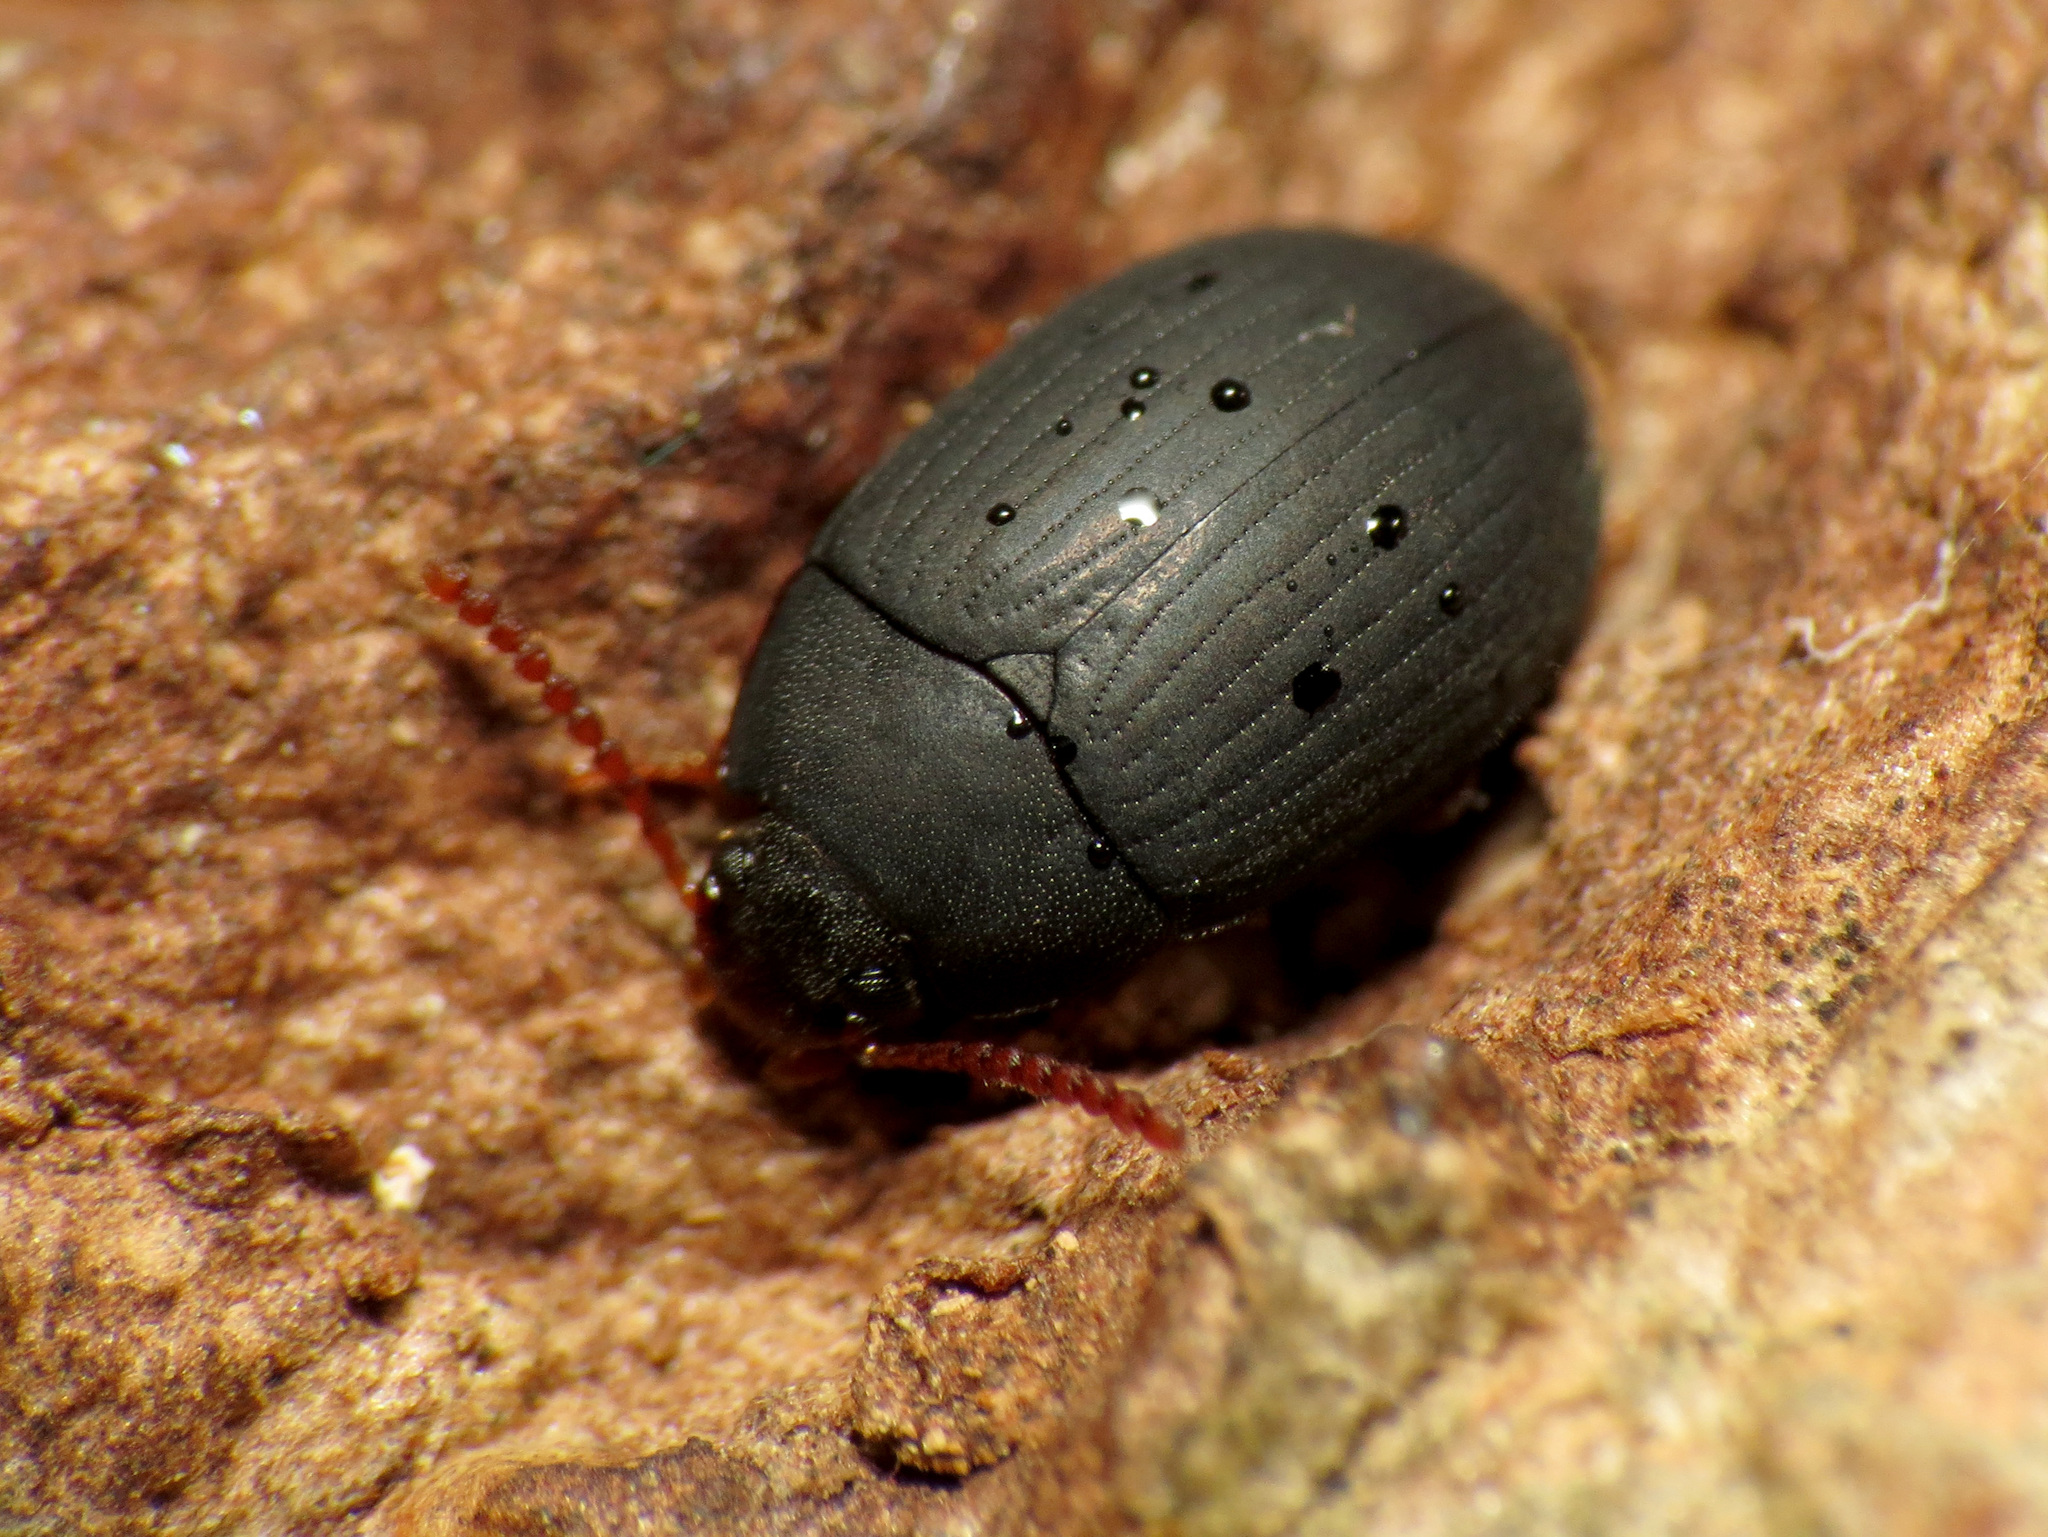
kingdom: Animalia
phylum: Arthropoda
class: Insecta
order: Coleoptera
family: Tenebrionidae
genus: Platydema
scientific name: Platydema ruficornis
